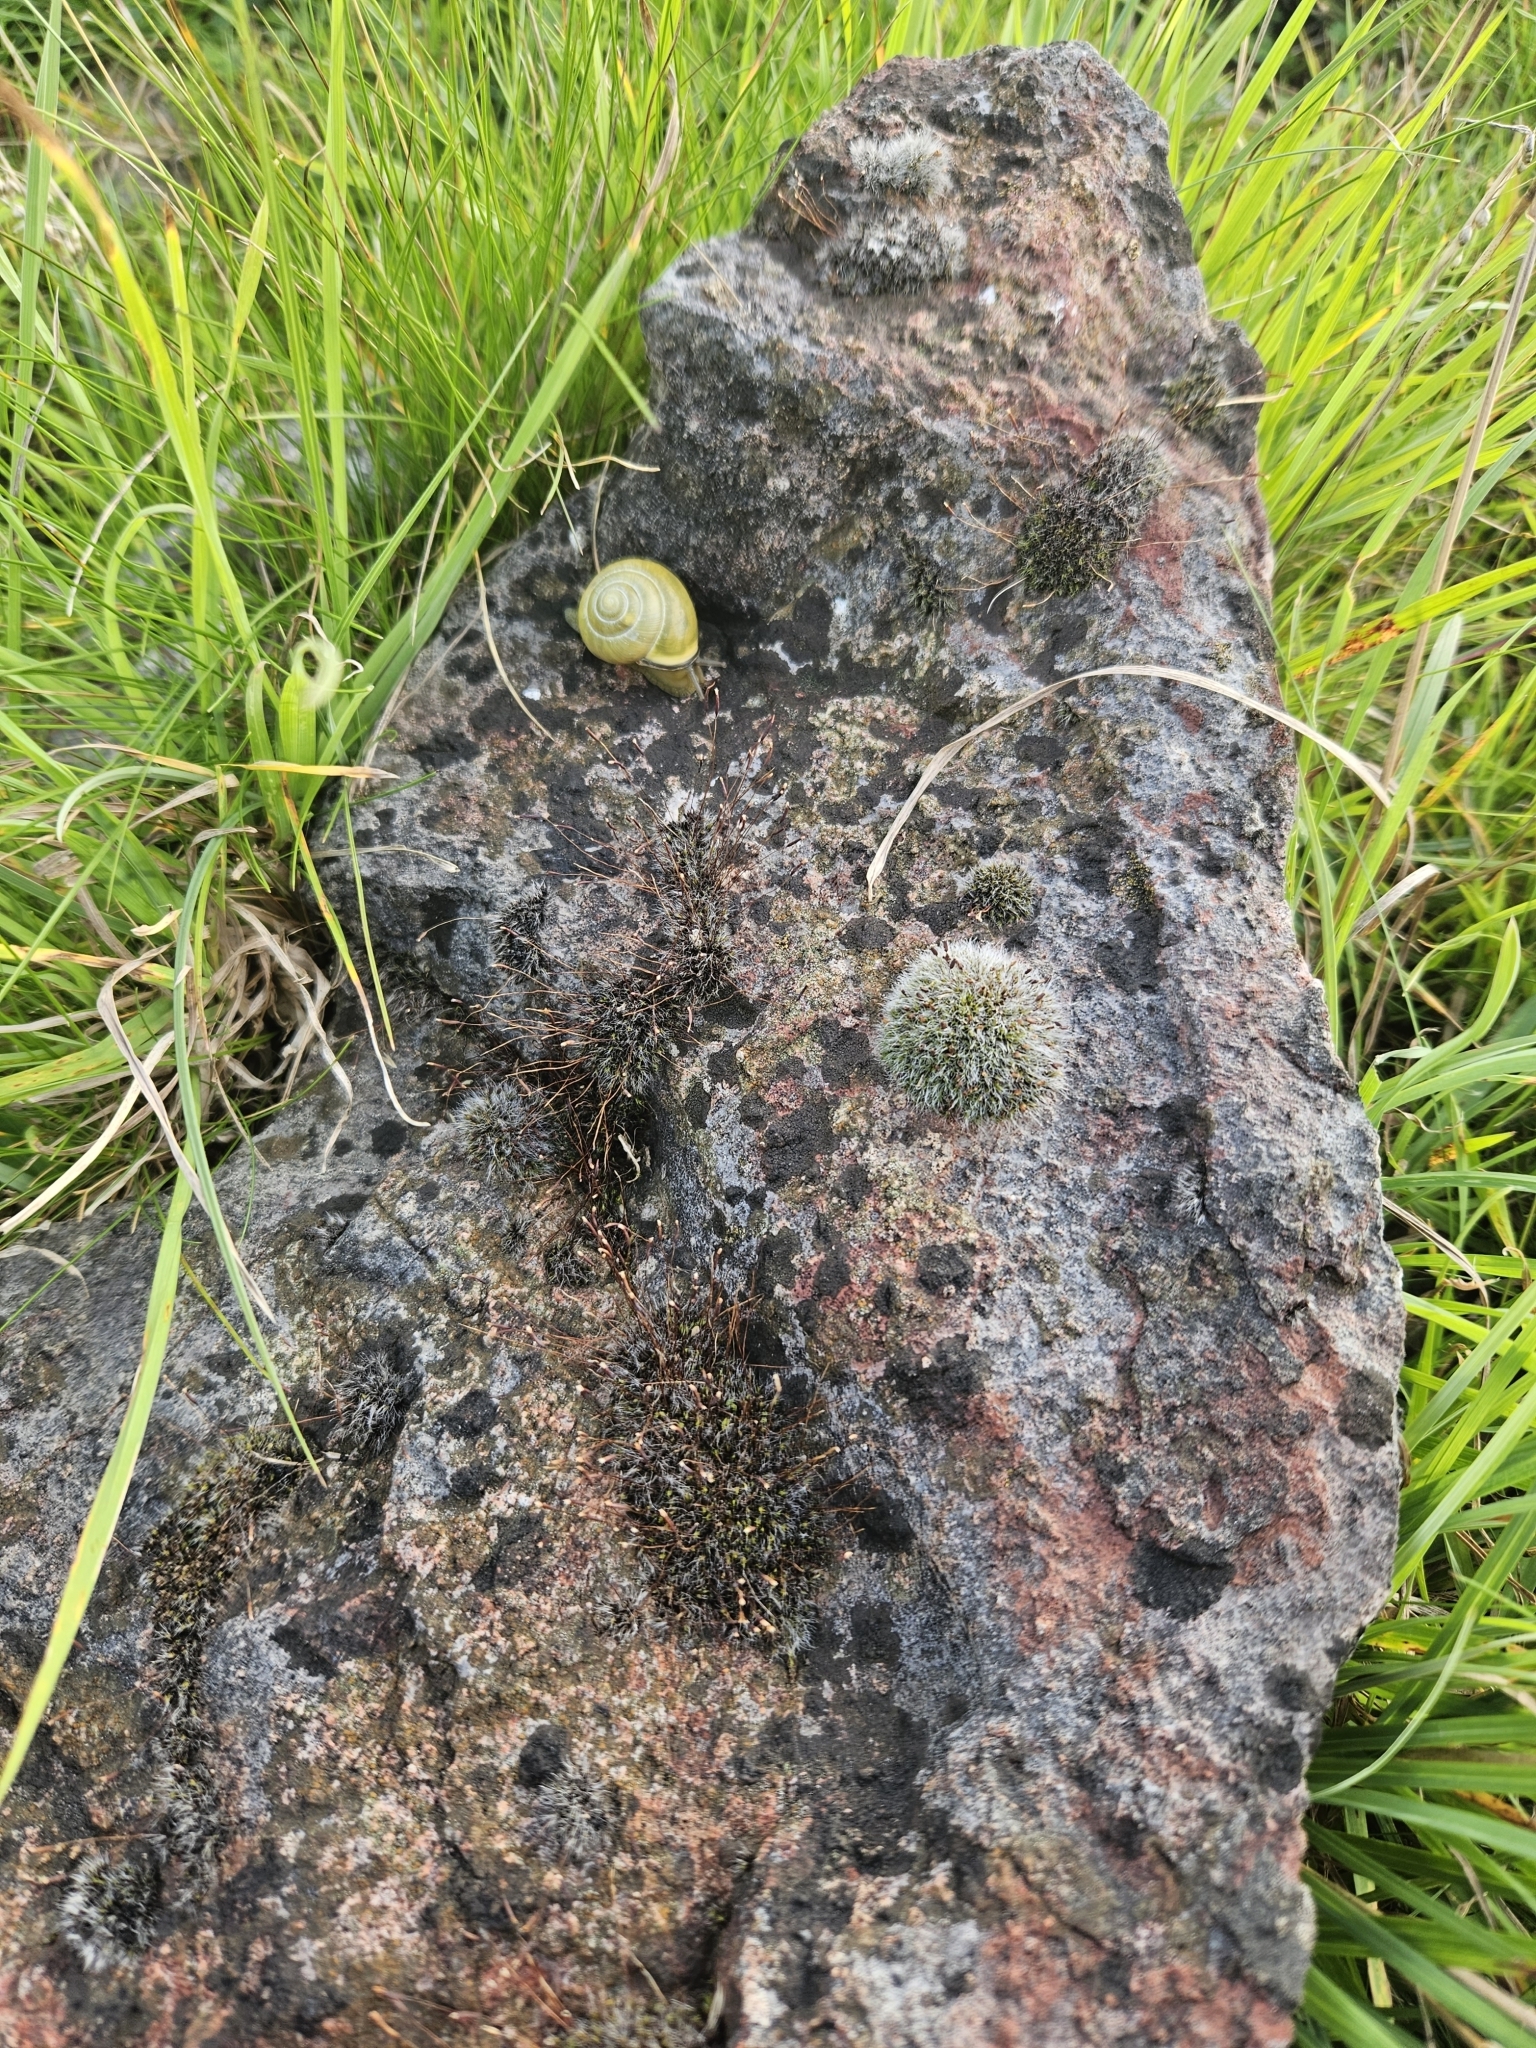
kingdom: Plantae
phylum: Bryophyta
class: Bryopsida
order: Grimmiales
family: Grimmiaceae
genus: Grimmia
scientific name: Grimmia pulvinata
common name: Grey-cushioned grimmia
